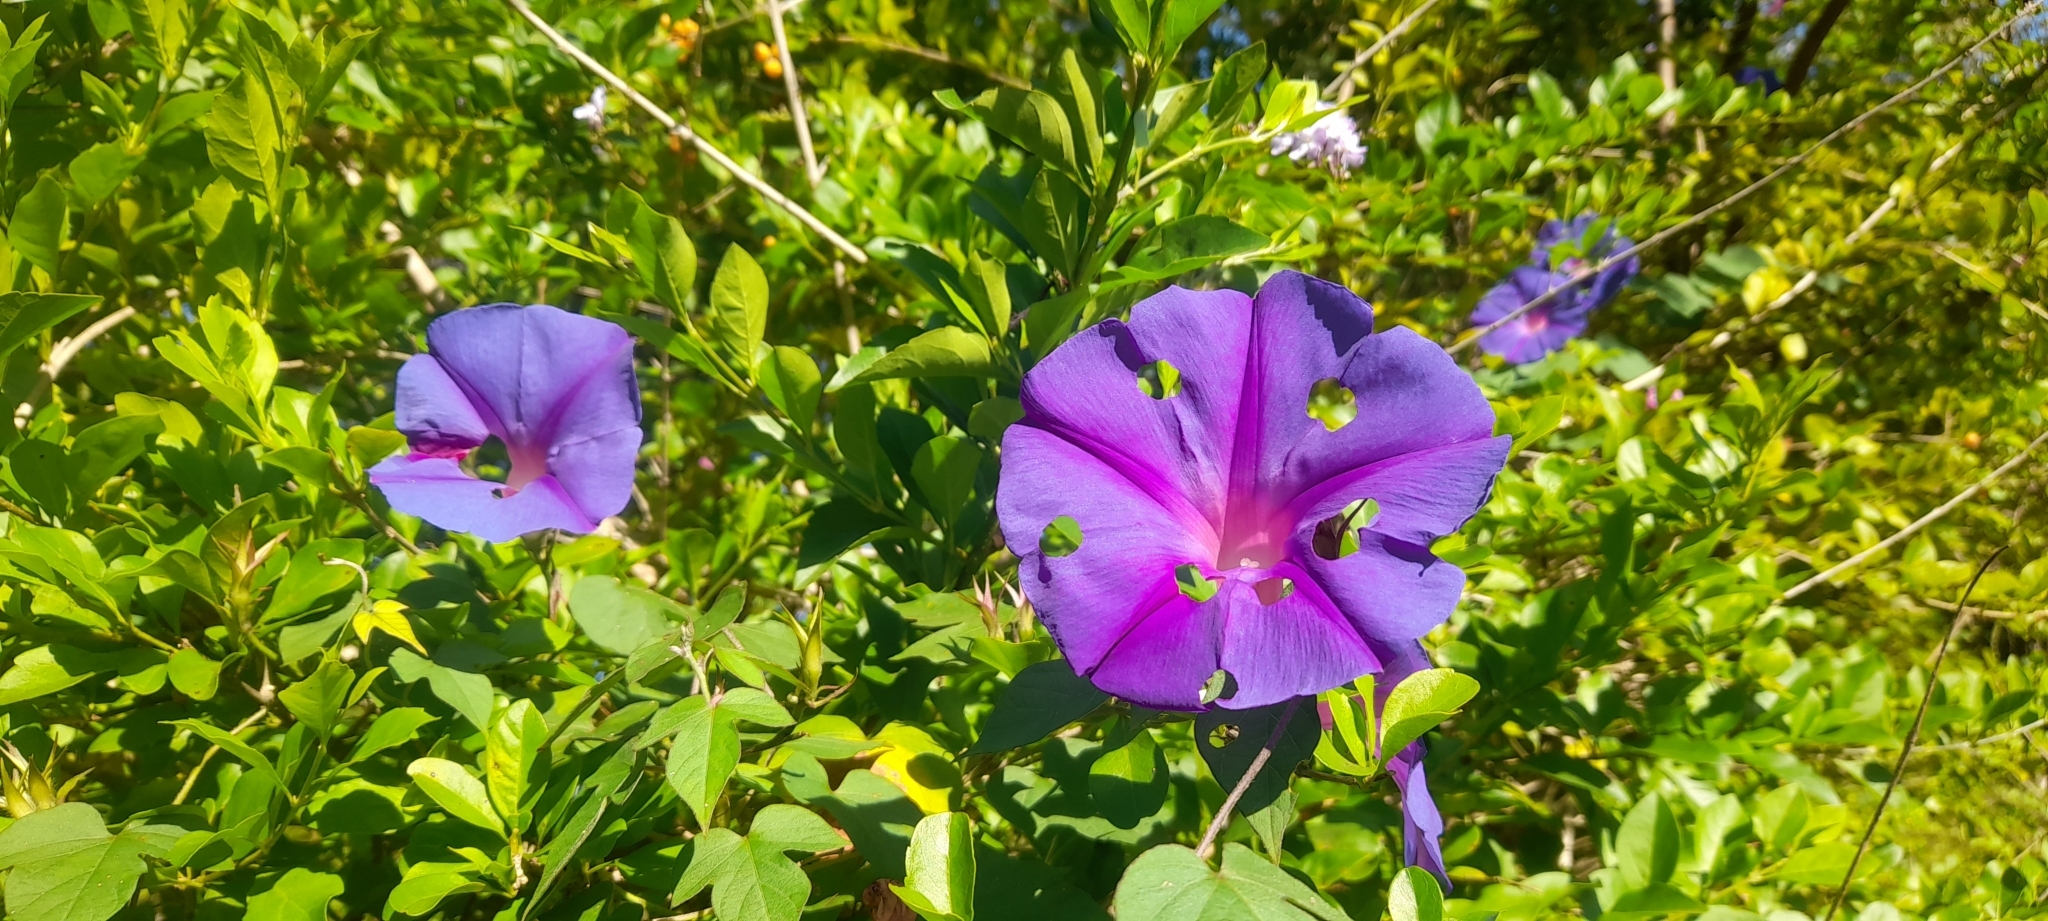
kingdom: Plantae
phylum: Tracheophyta
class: Magnoliopsida
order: Solanales
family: Convolvulaceae
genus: Ipomoea
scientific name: Ipomoea indica
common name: Blue dawnflower
